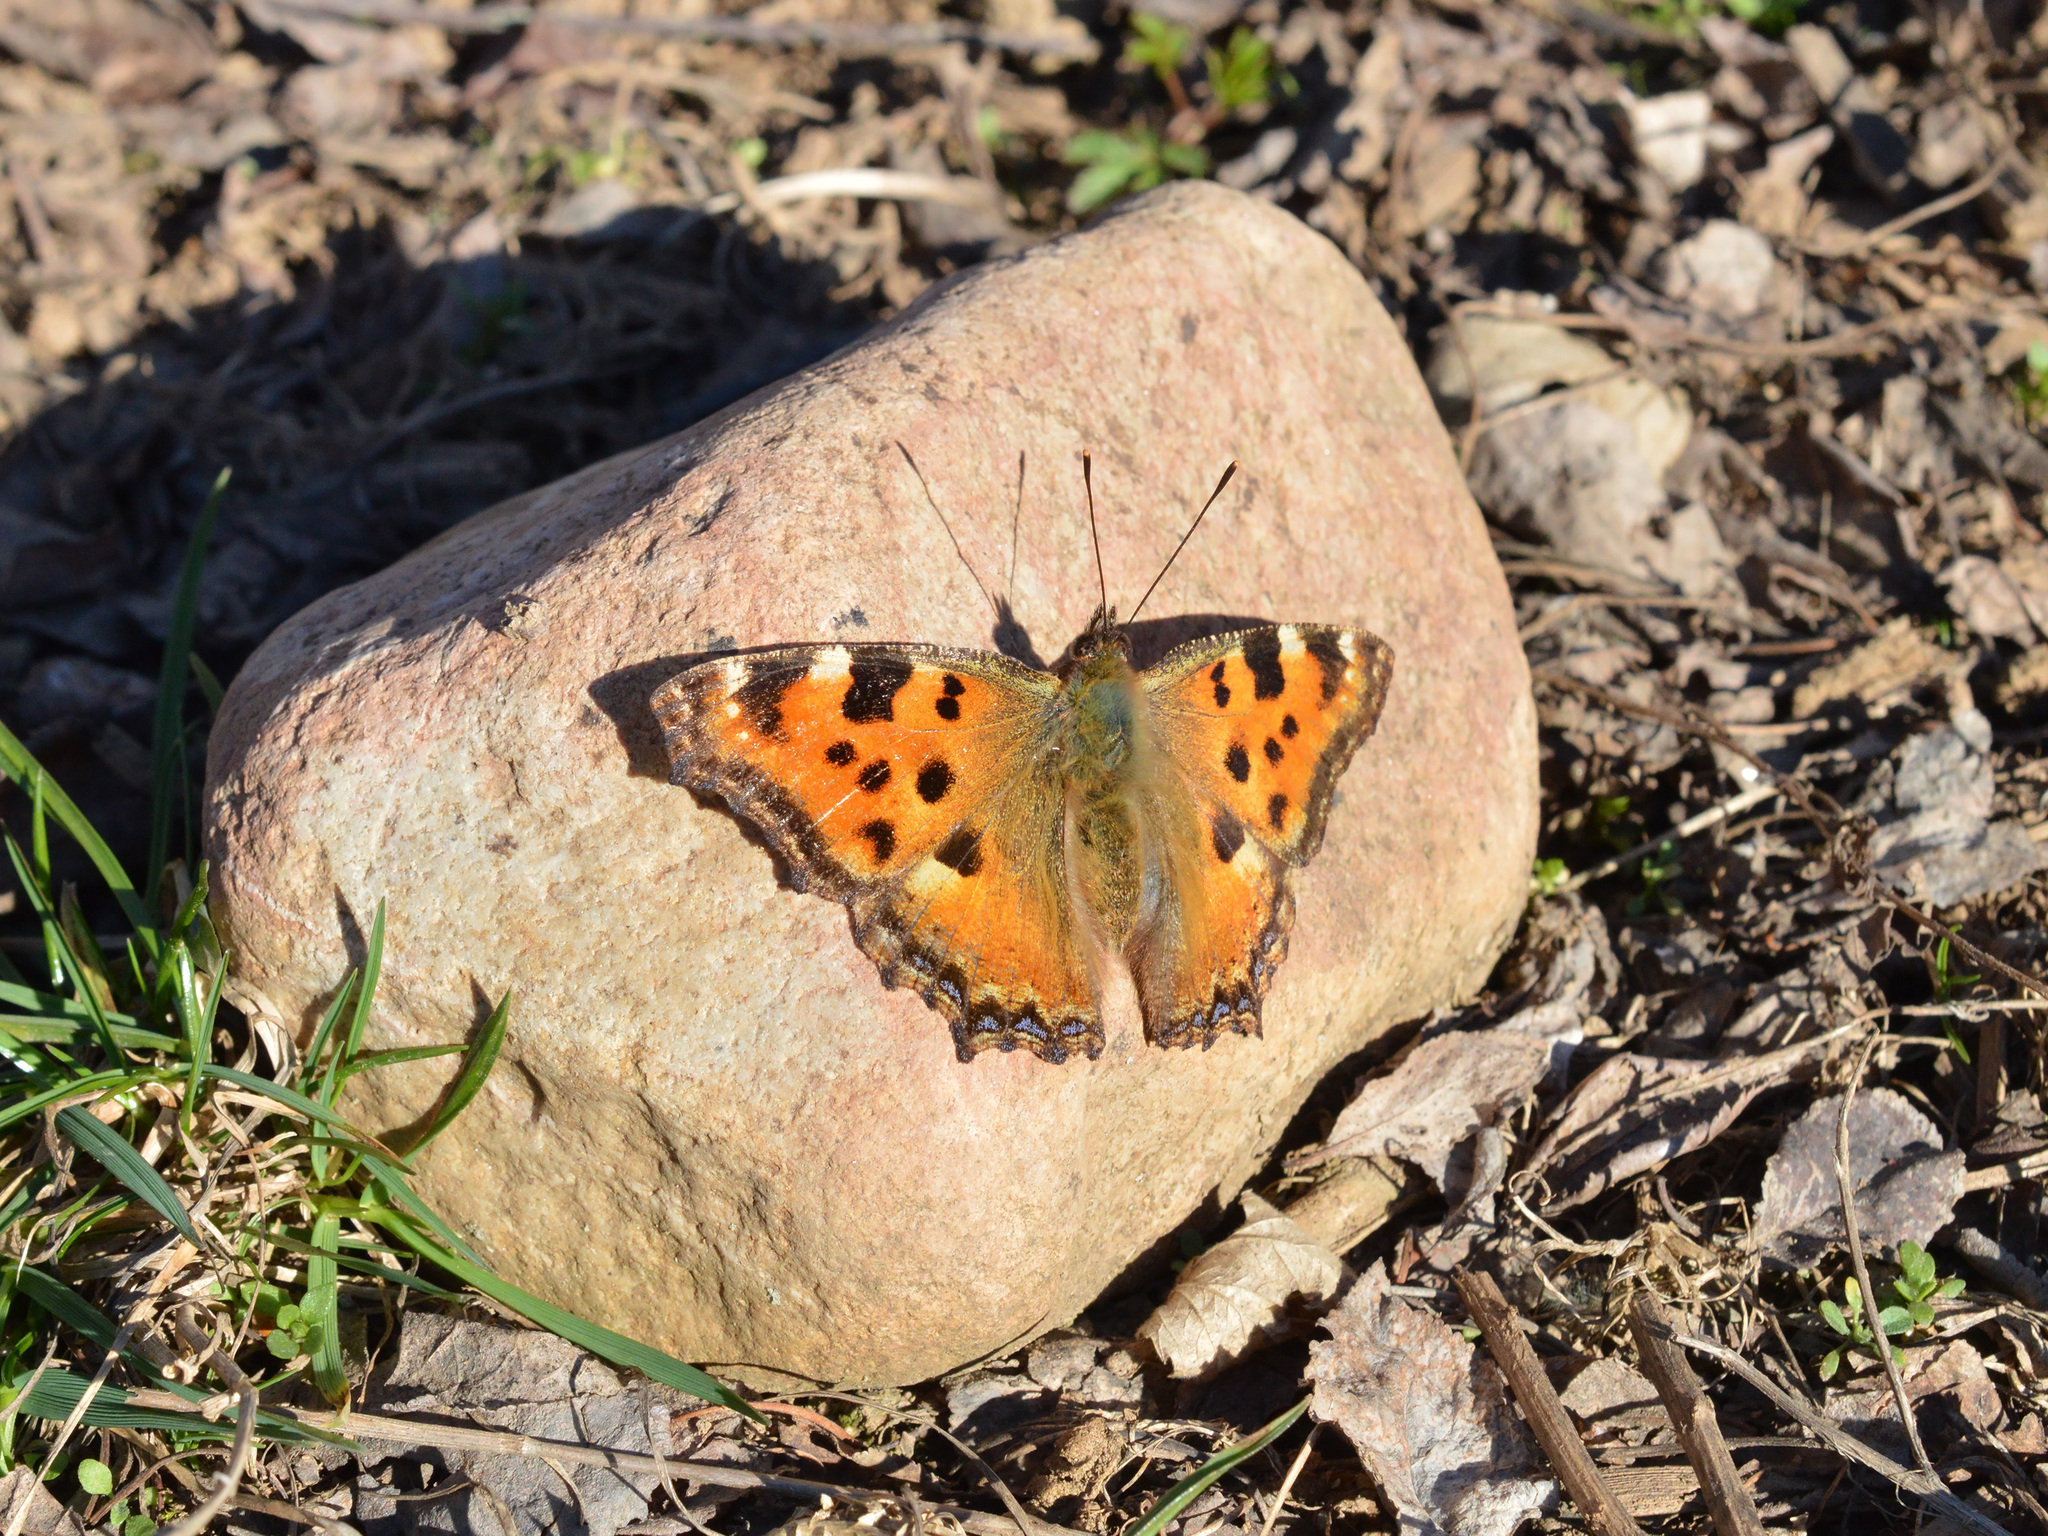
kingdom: Animalia
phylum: Arthropoda
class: Insecta
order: Lepidoptera
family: Nymphalidae
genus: Nymphalis
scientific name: Nymphalis polychloros
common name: Large tortoiseshell
